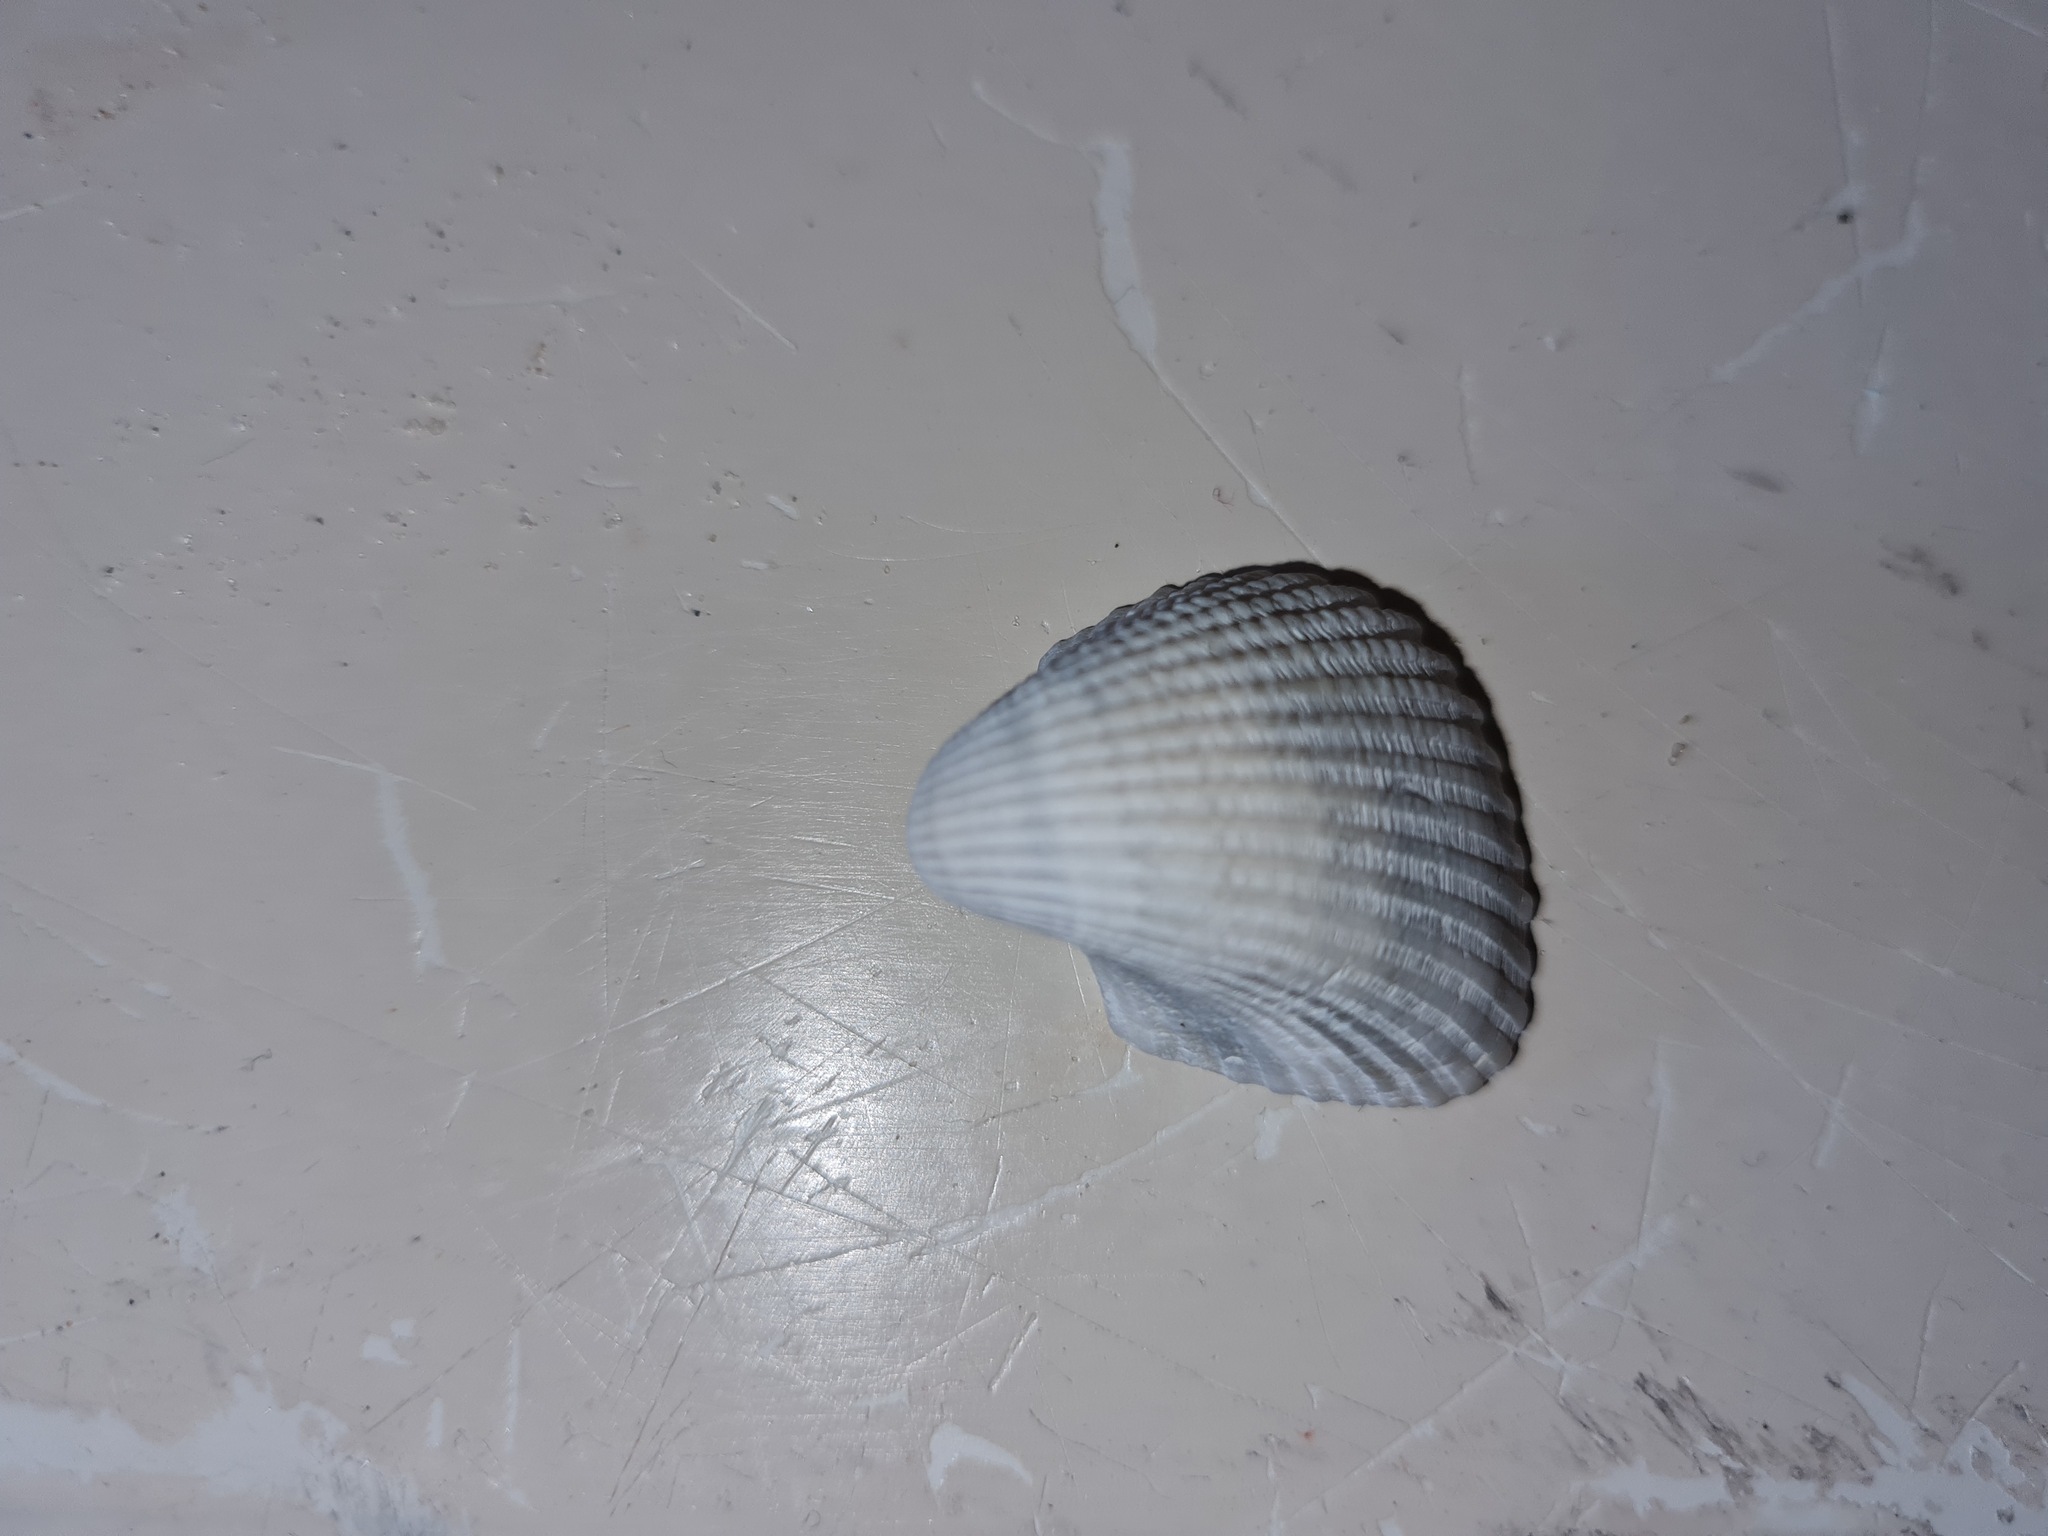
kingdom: Animalia
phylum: Mollusca
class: Bivalvia
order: Arcida
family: Arcidae
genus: Anadara
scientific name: Anadara chemnitzii
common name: Chemnitz's triangular ark
